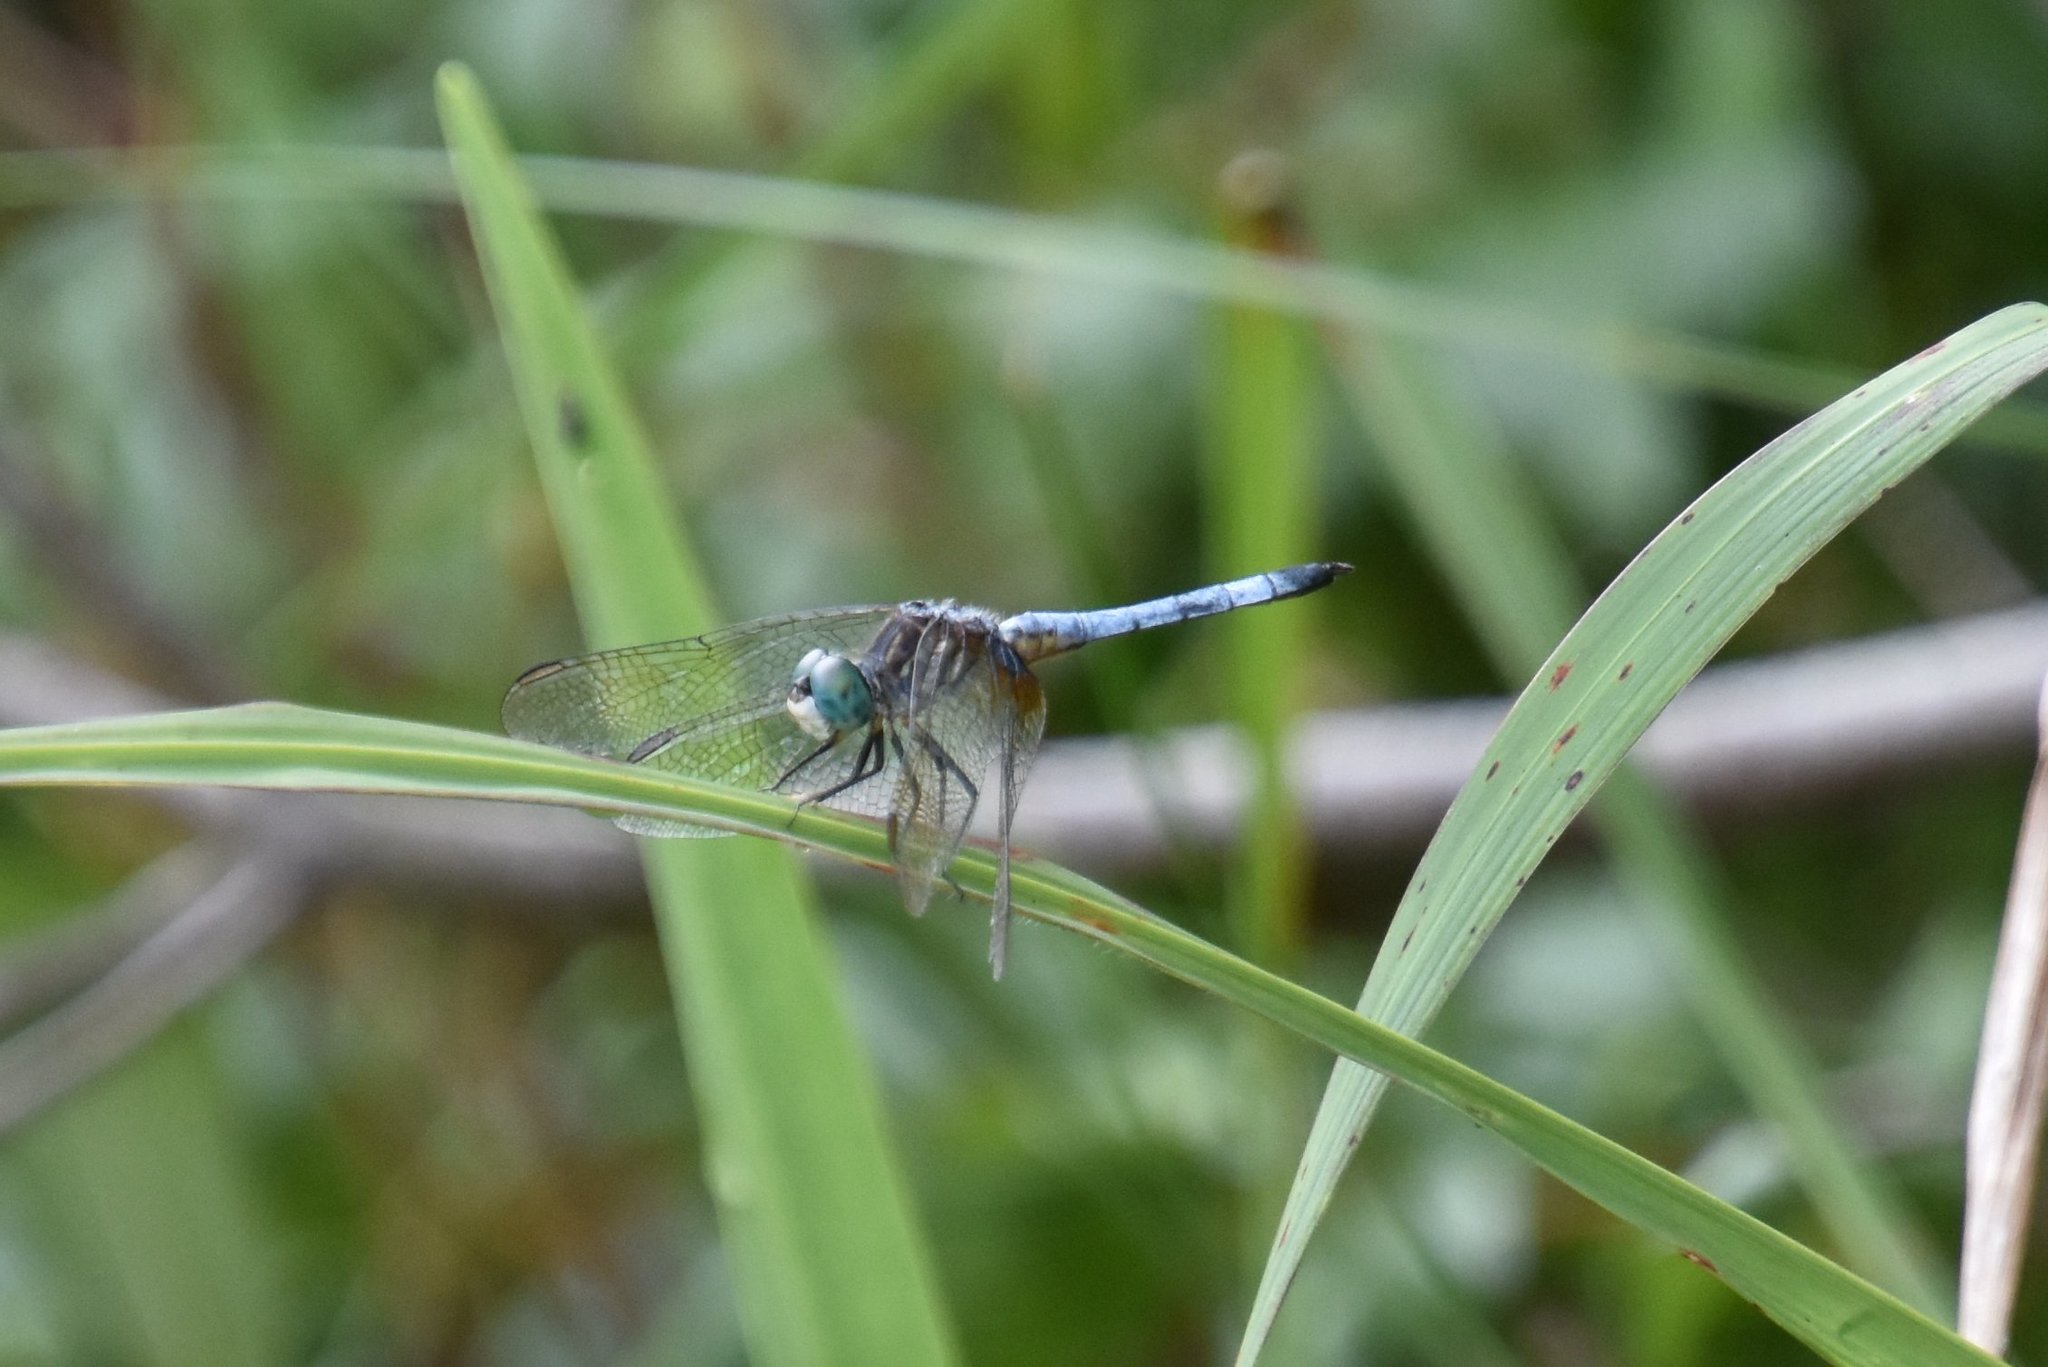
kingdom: Animalia
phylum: Arthropoda
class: Insecta
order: Odonata
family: Libellulidae
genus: Pachydiplax
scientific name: Pachydiplax longipennis
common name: Blue dasher
